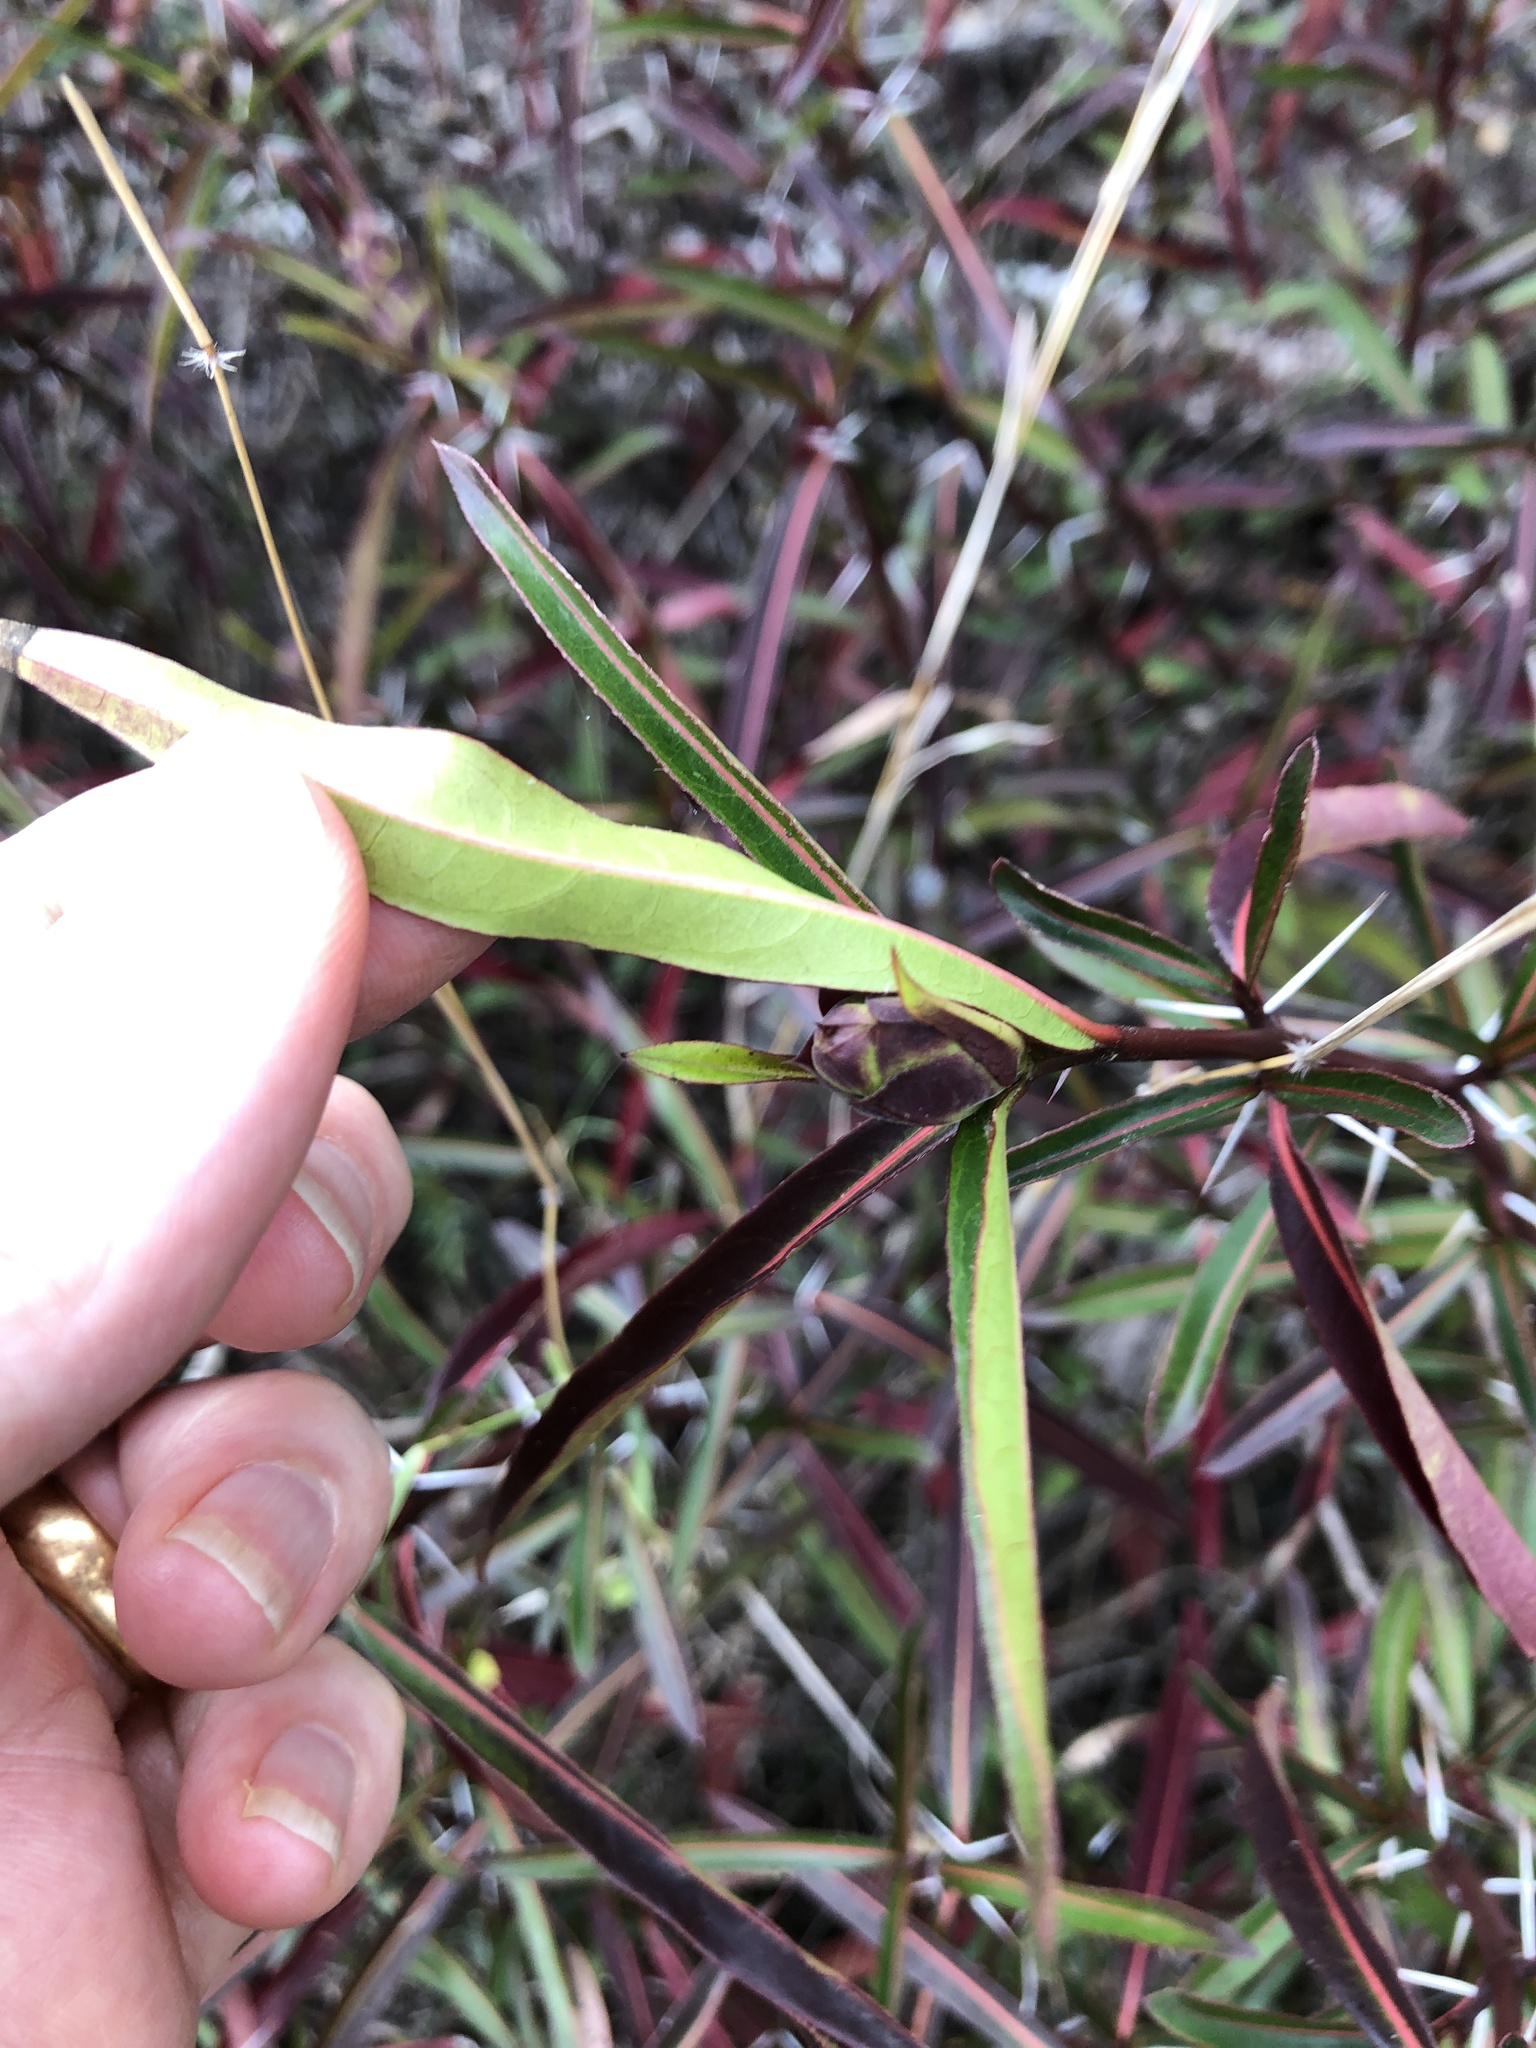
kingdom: Plantae
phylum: Tracheophyta
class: Magnoliopsida
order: Lamiales
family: Acanthaceae
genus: Barleria
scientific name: Barleria lupulina
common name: Hophead philippine violet
